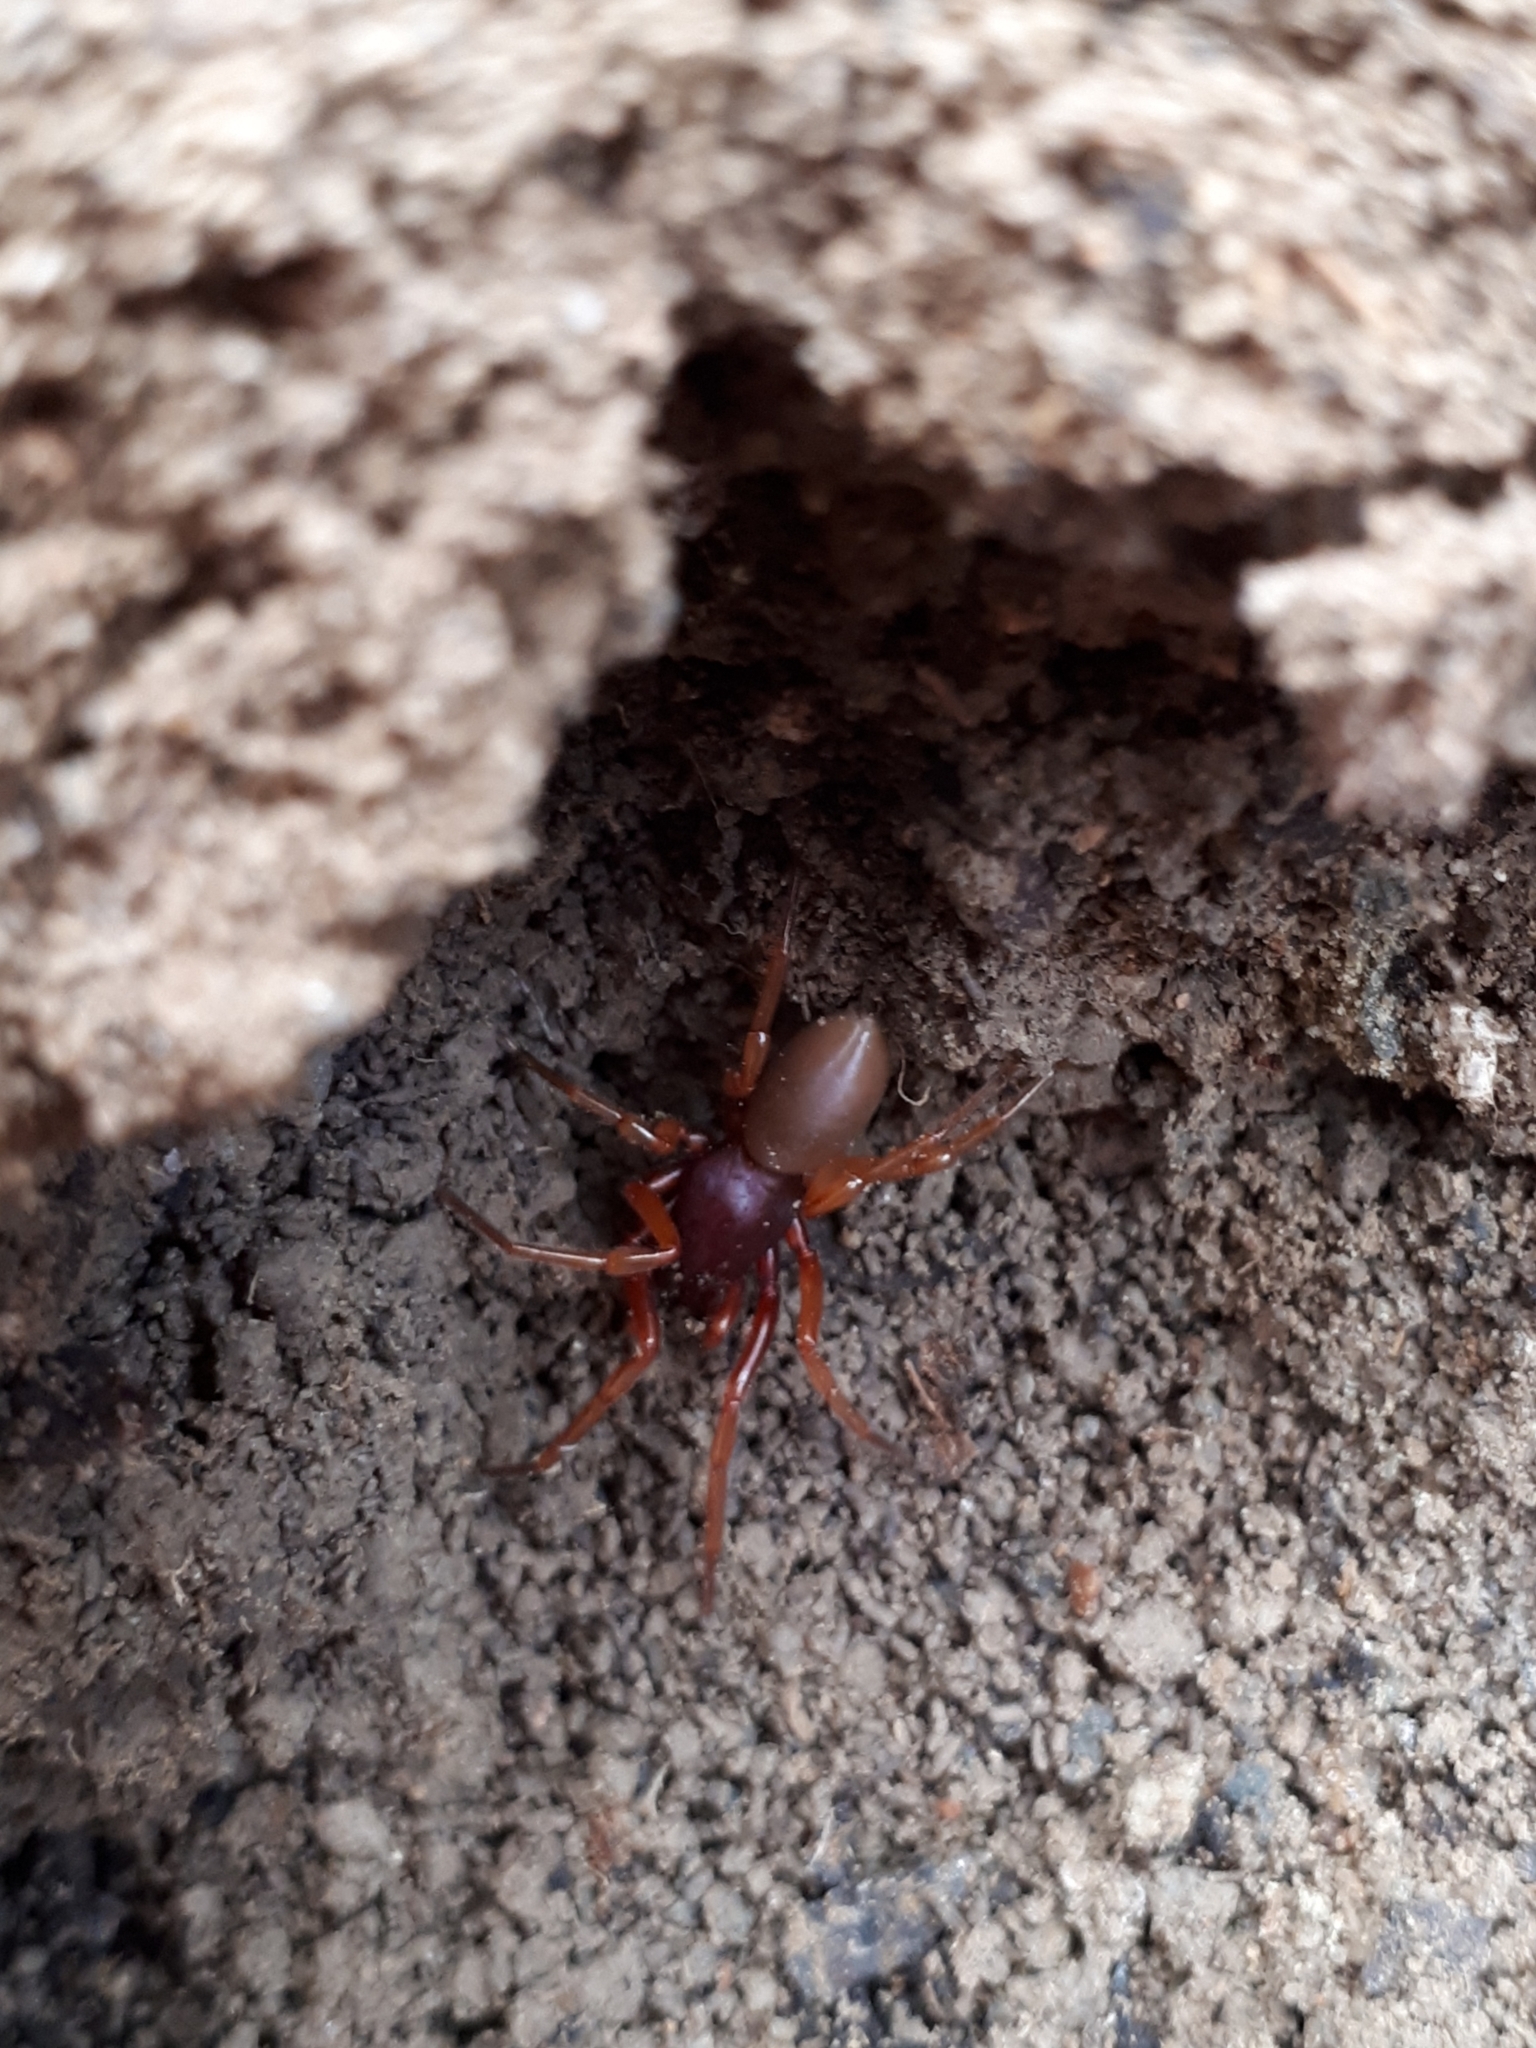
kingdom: Animalia
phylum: Arthropoda
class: Arachnida
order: Araneae
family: Dysderidae
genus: Dysdera
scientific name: Dysdera crocata
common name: Woodlouse spider
